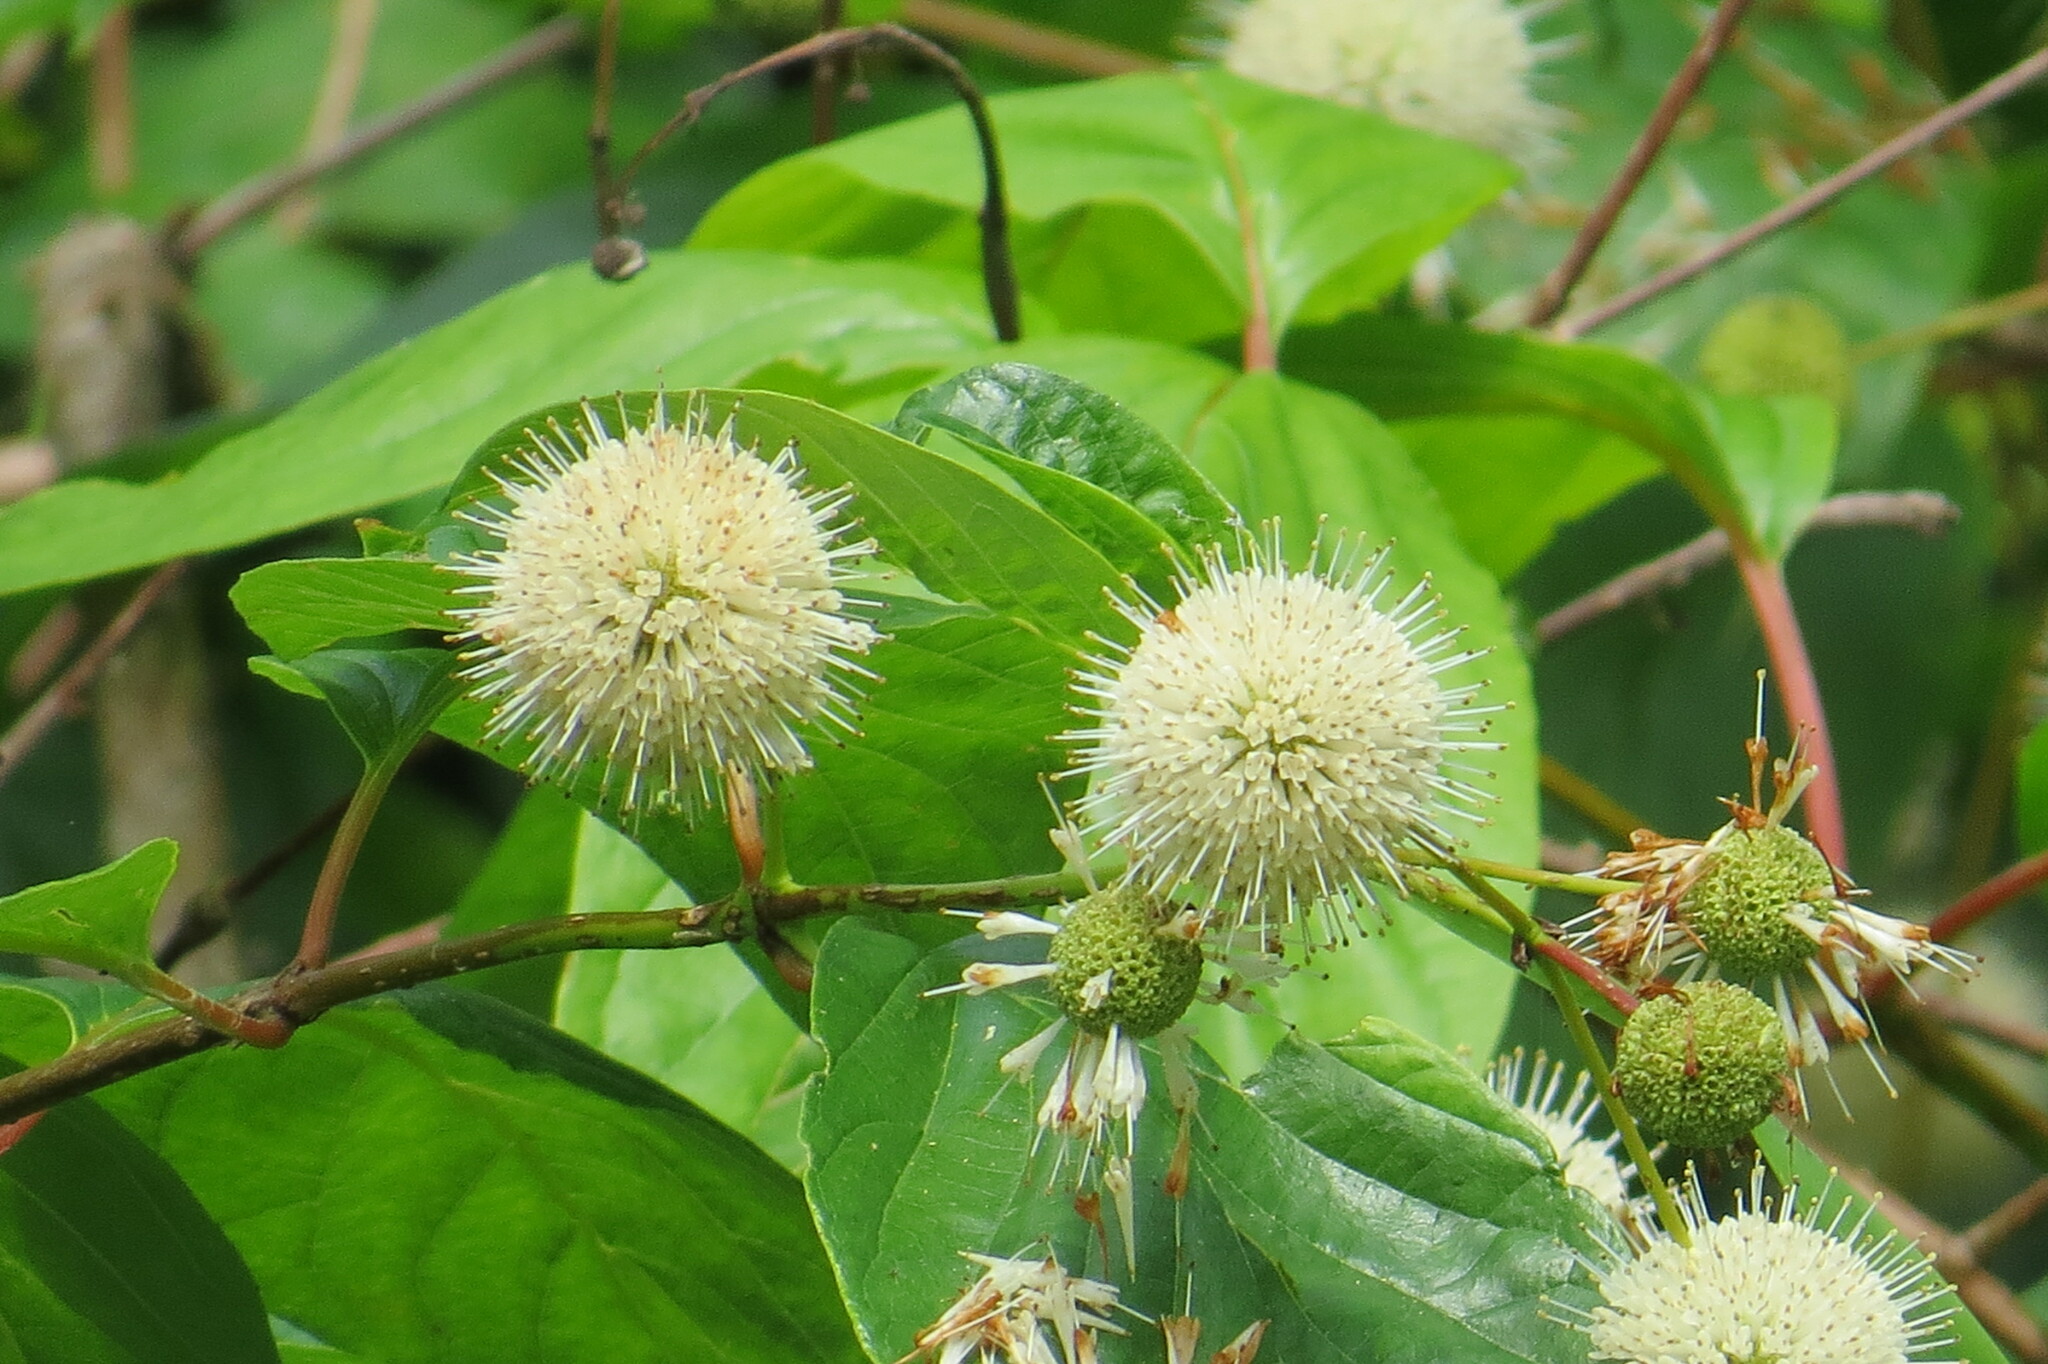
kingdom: Plantae
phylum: Tracheophyta
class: Magnoliopsida
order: Gentianales
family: Rubiaceae
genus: Cephalanthus
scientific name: Cephalanthus occidentalis
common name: Button-willow
